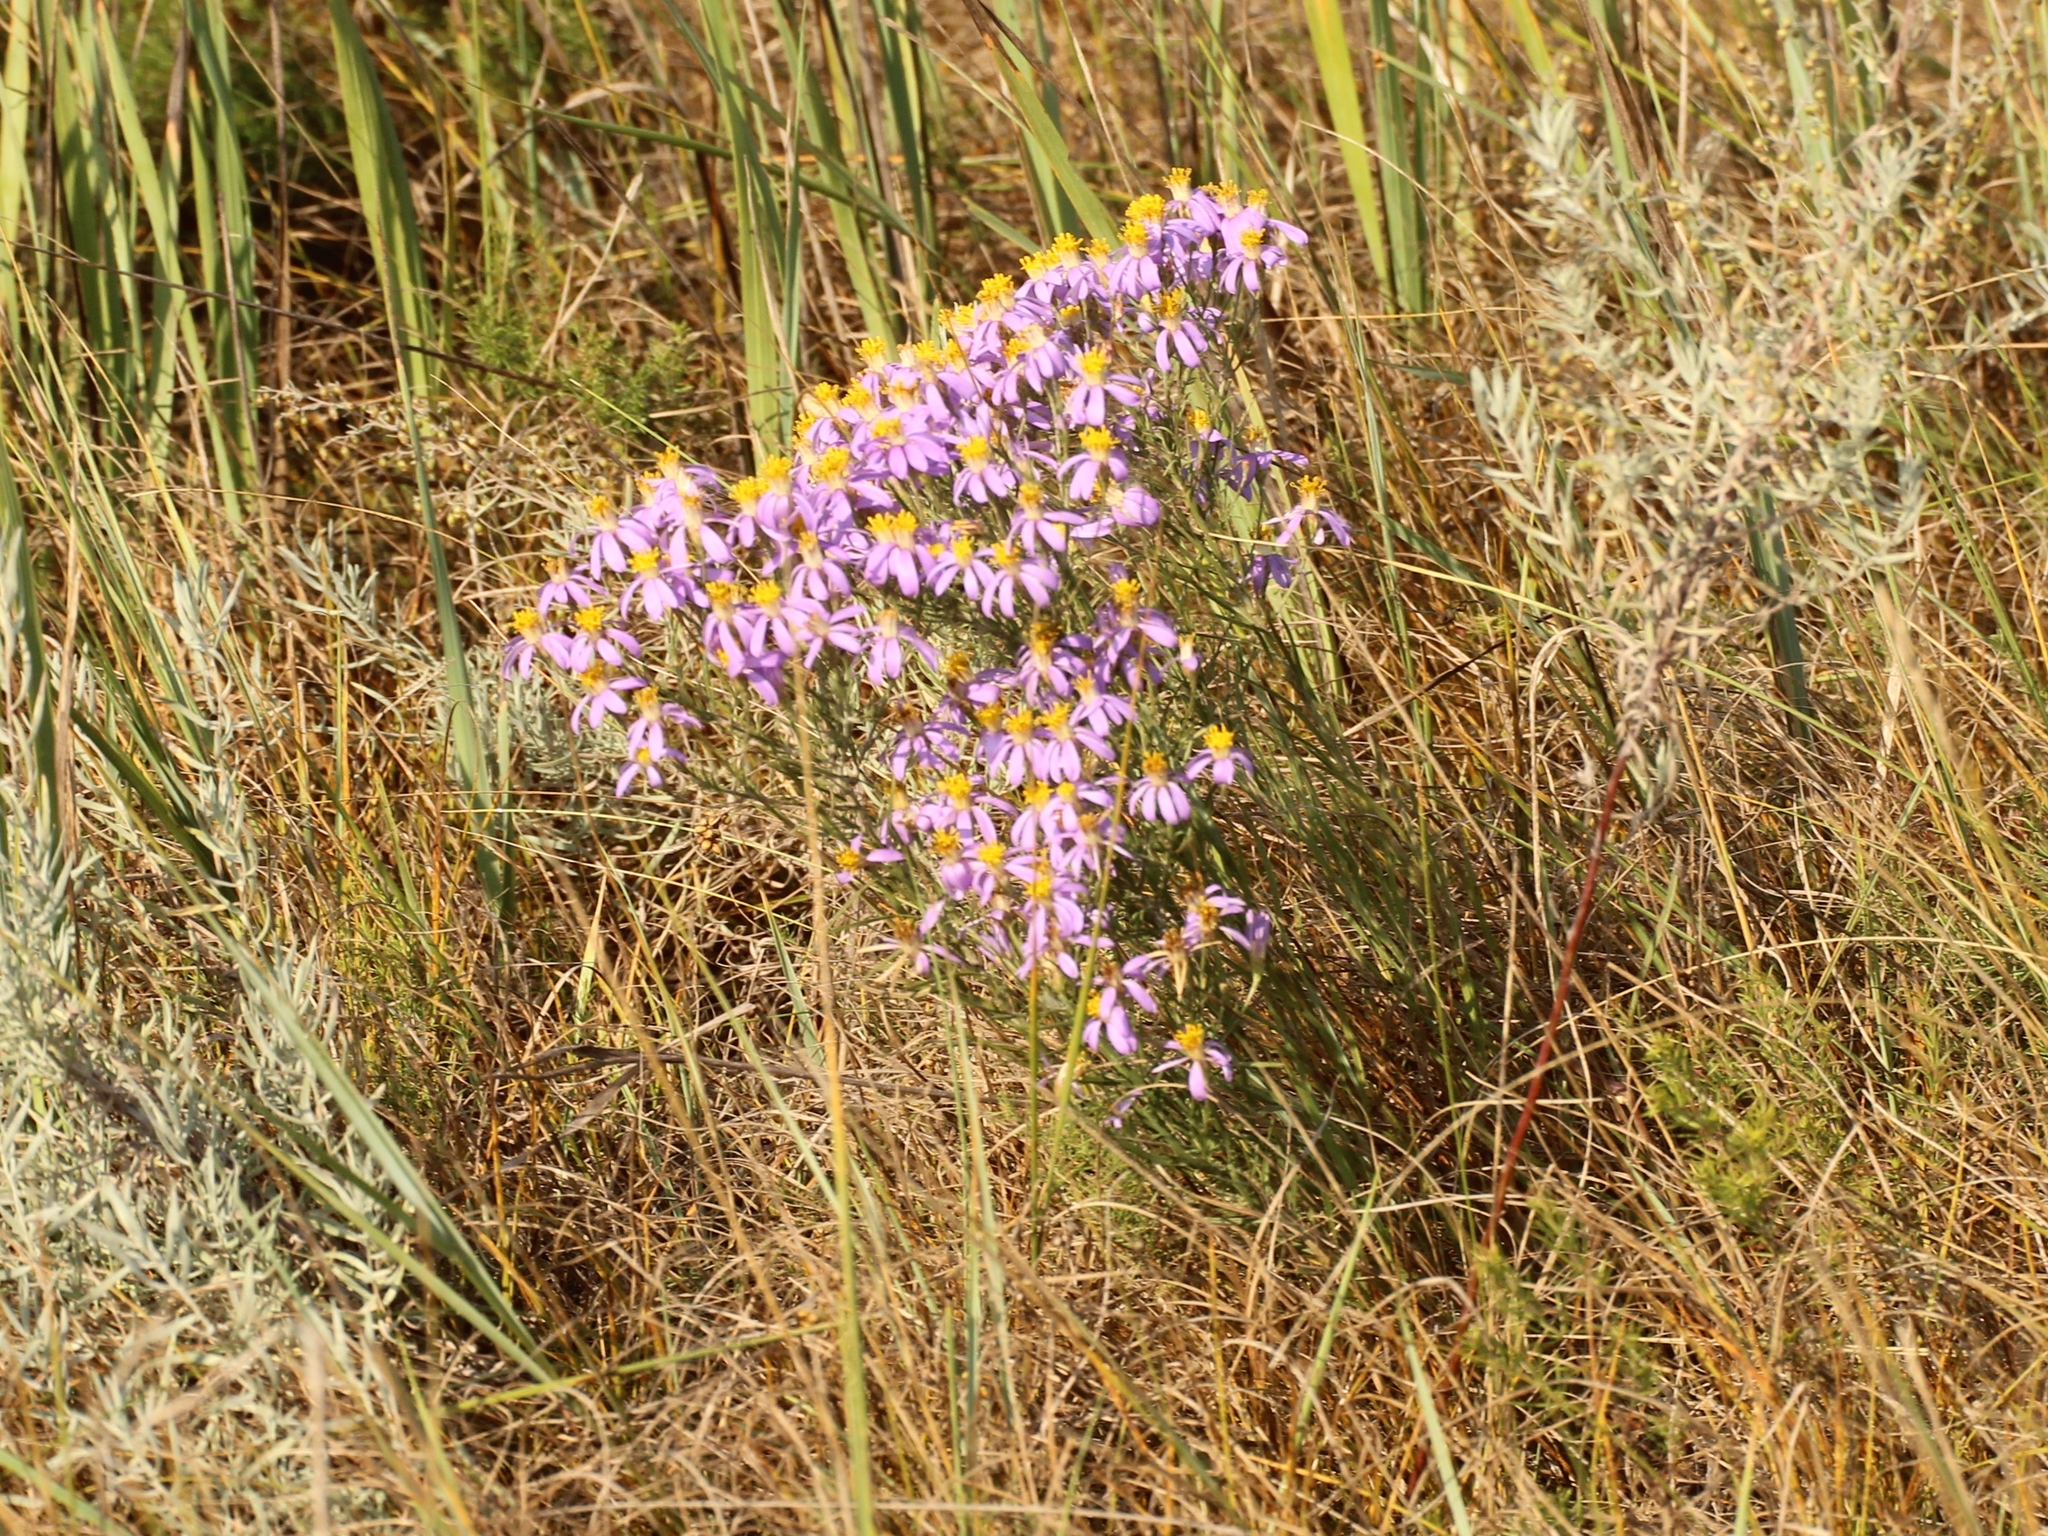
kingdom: Plantae
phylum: Tracheophyta
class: Magnoliopsida
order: Asterales
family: Asteraceae
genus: Galatella
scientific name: Galatella angustissima
